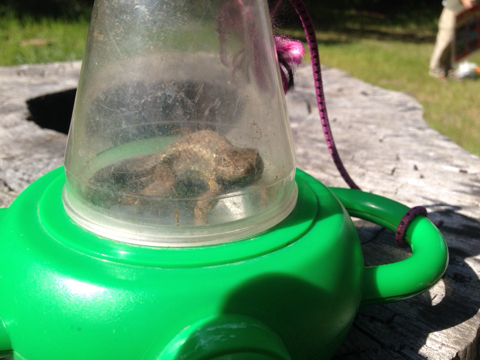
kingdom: Animalia
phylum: Chordata
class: Squamata
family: Phrynosomatidae
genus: Sceloporus
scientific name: Sceloporus occidentalis
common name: Western fence lizard
